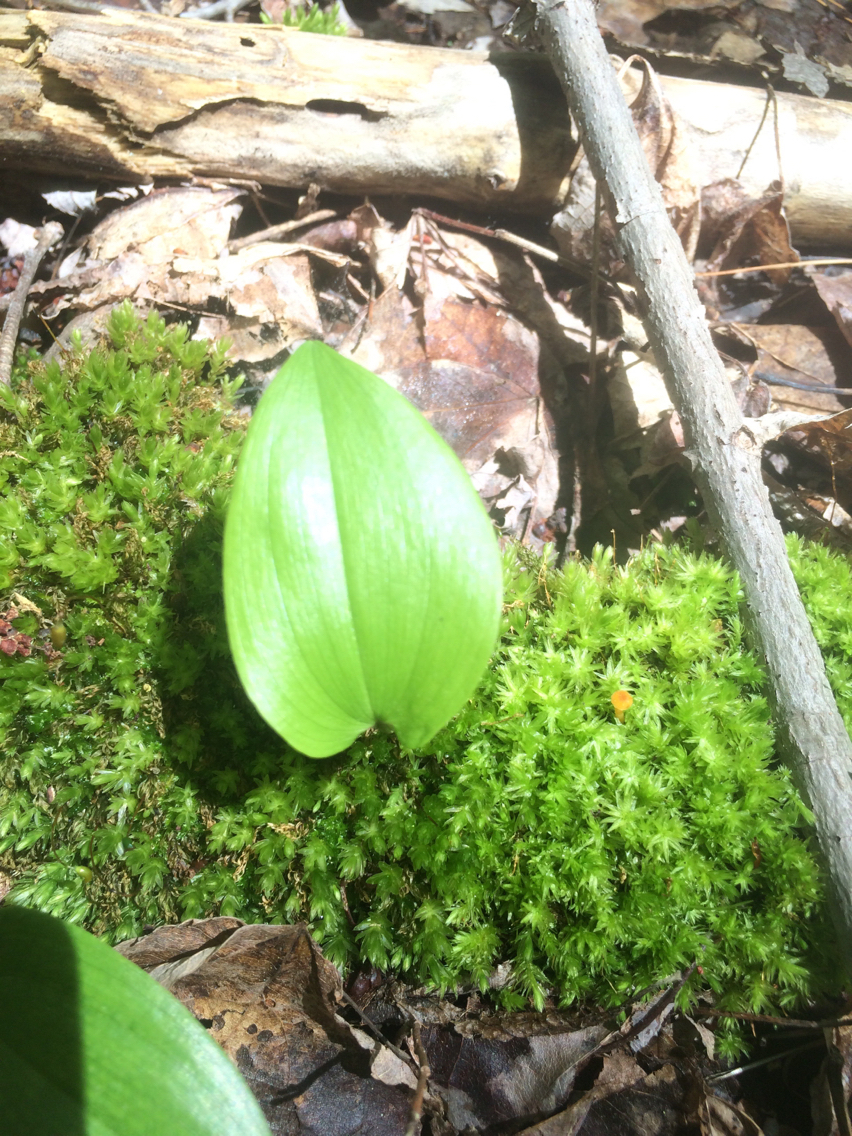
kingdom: Plantae
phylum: Tracheophyta
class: Liliopsida
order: Asparagales
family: Asparagaceae
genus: Maianthemum
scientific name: Maianthemum canadense
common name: False lily-of-the-valley
